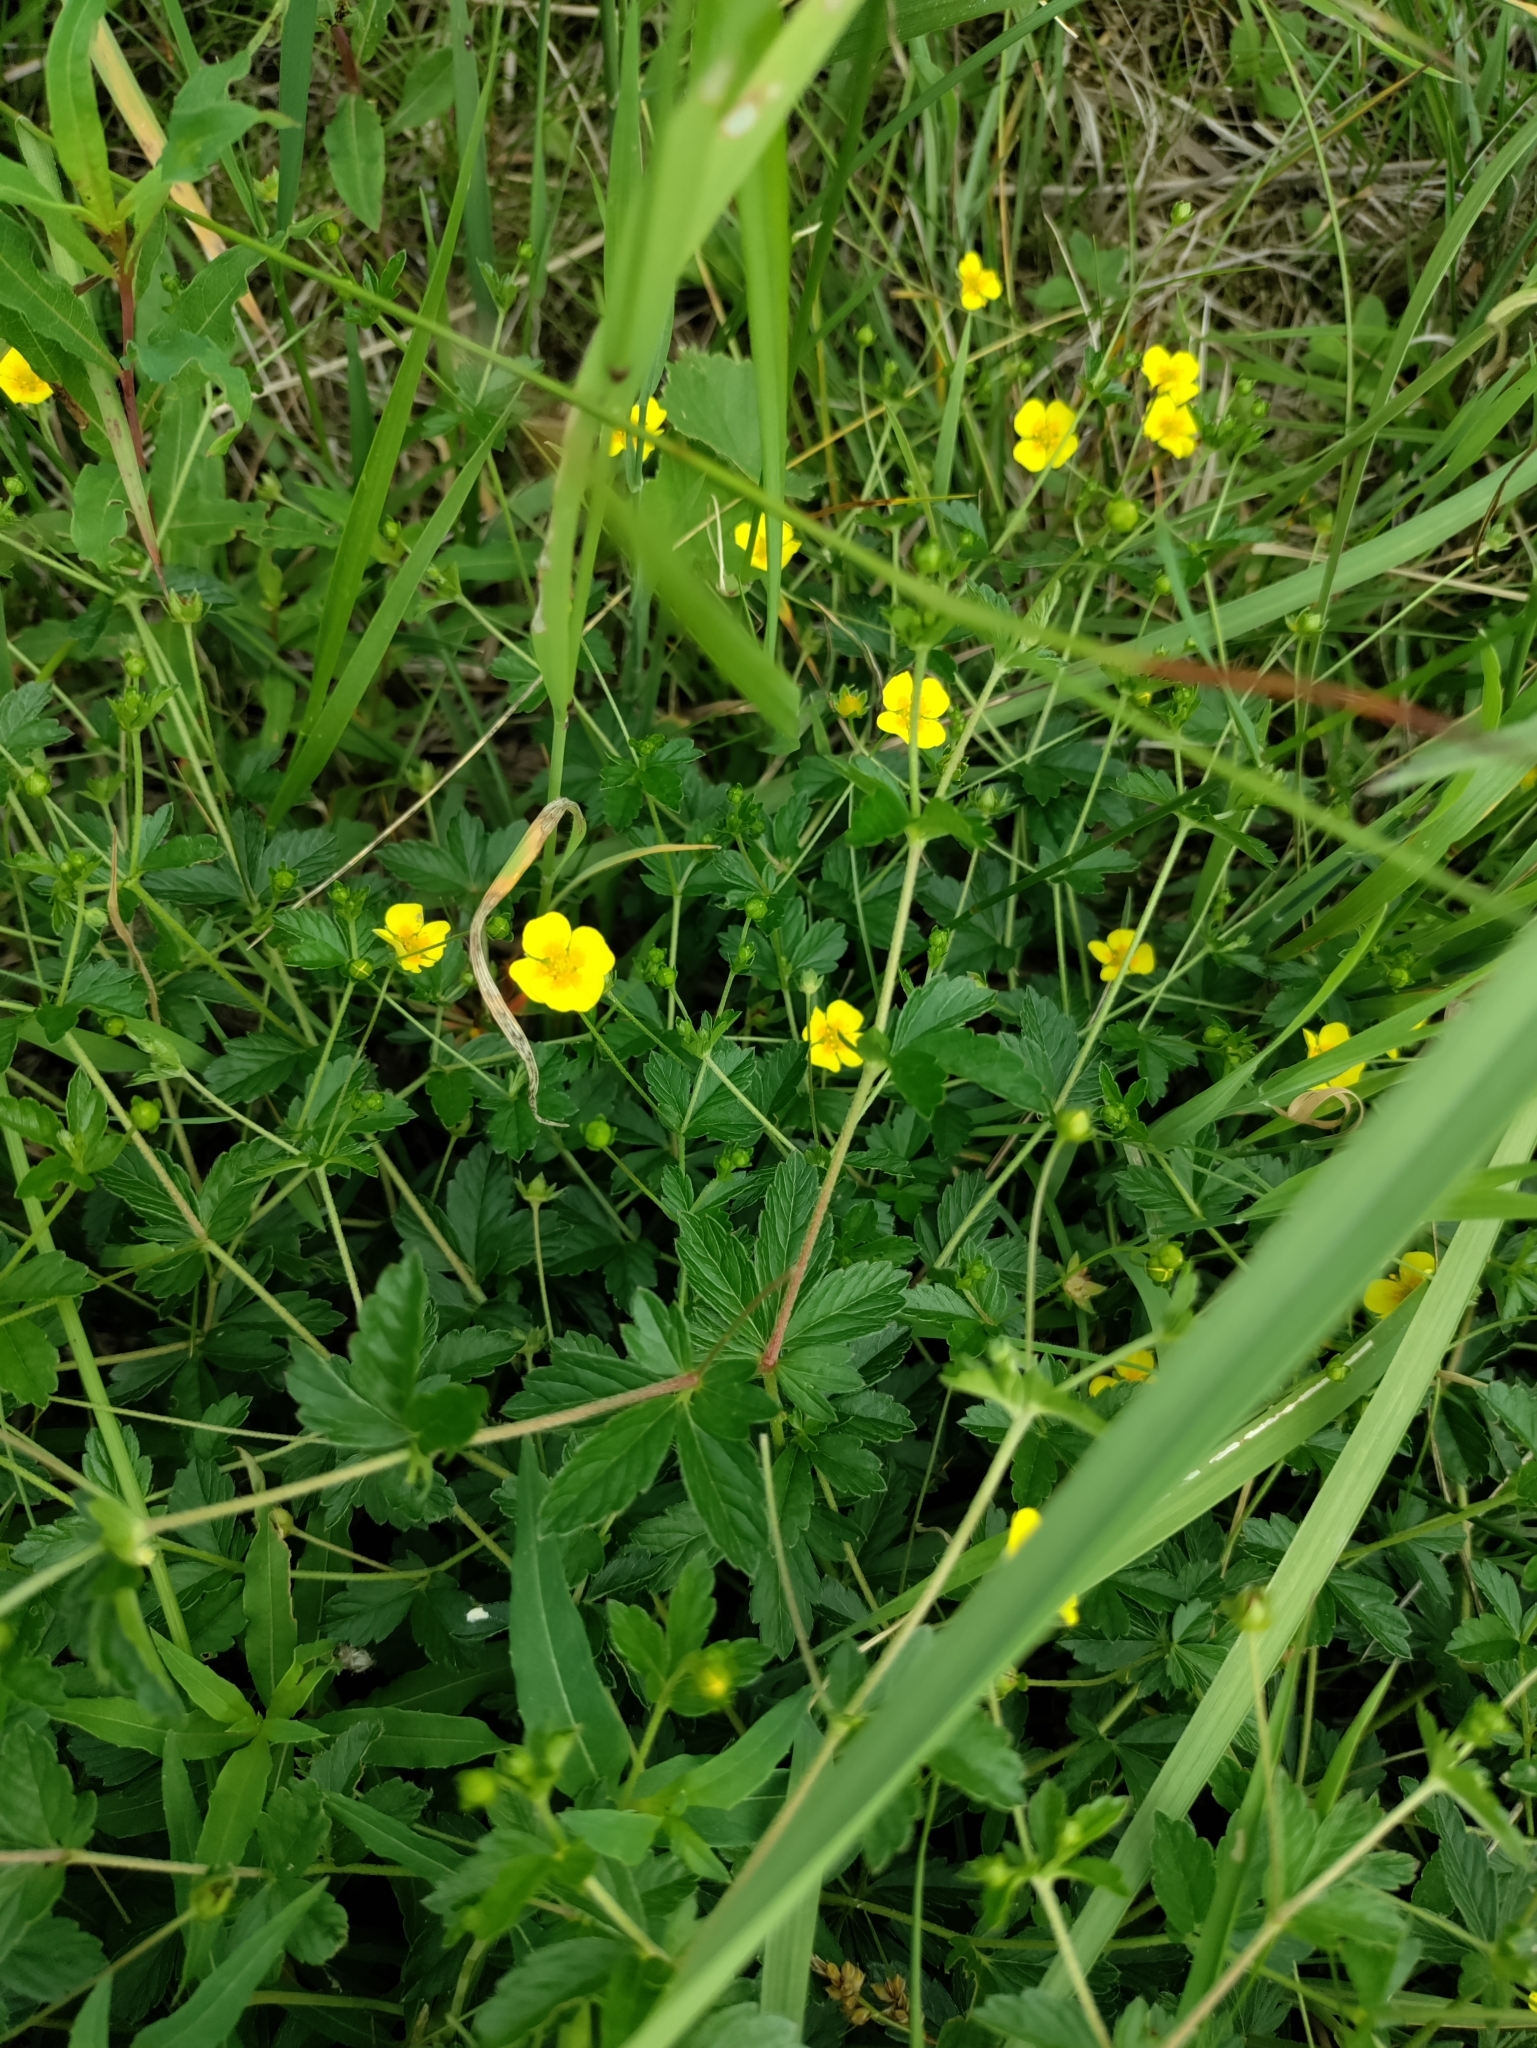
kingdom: Plantae
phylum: Tracheophyta
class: Magnoliopsida
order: Rosales
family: Rosaceae
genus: Potentilla
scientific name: Potentilla erecta
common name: Tormentil
